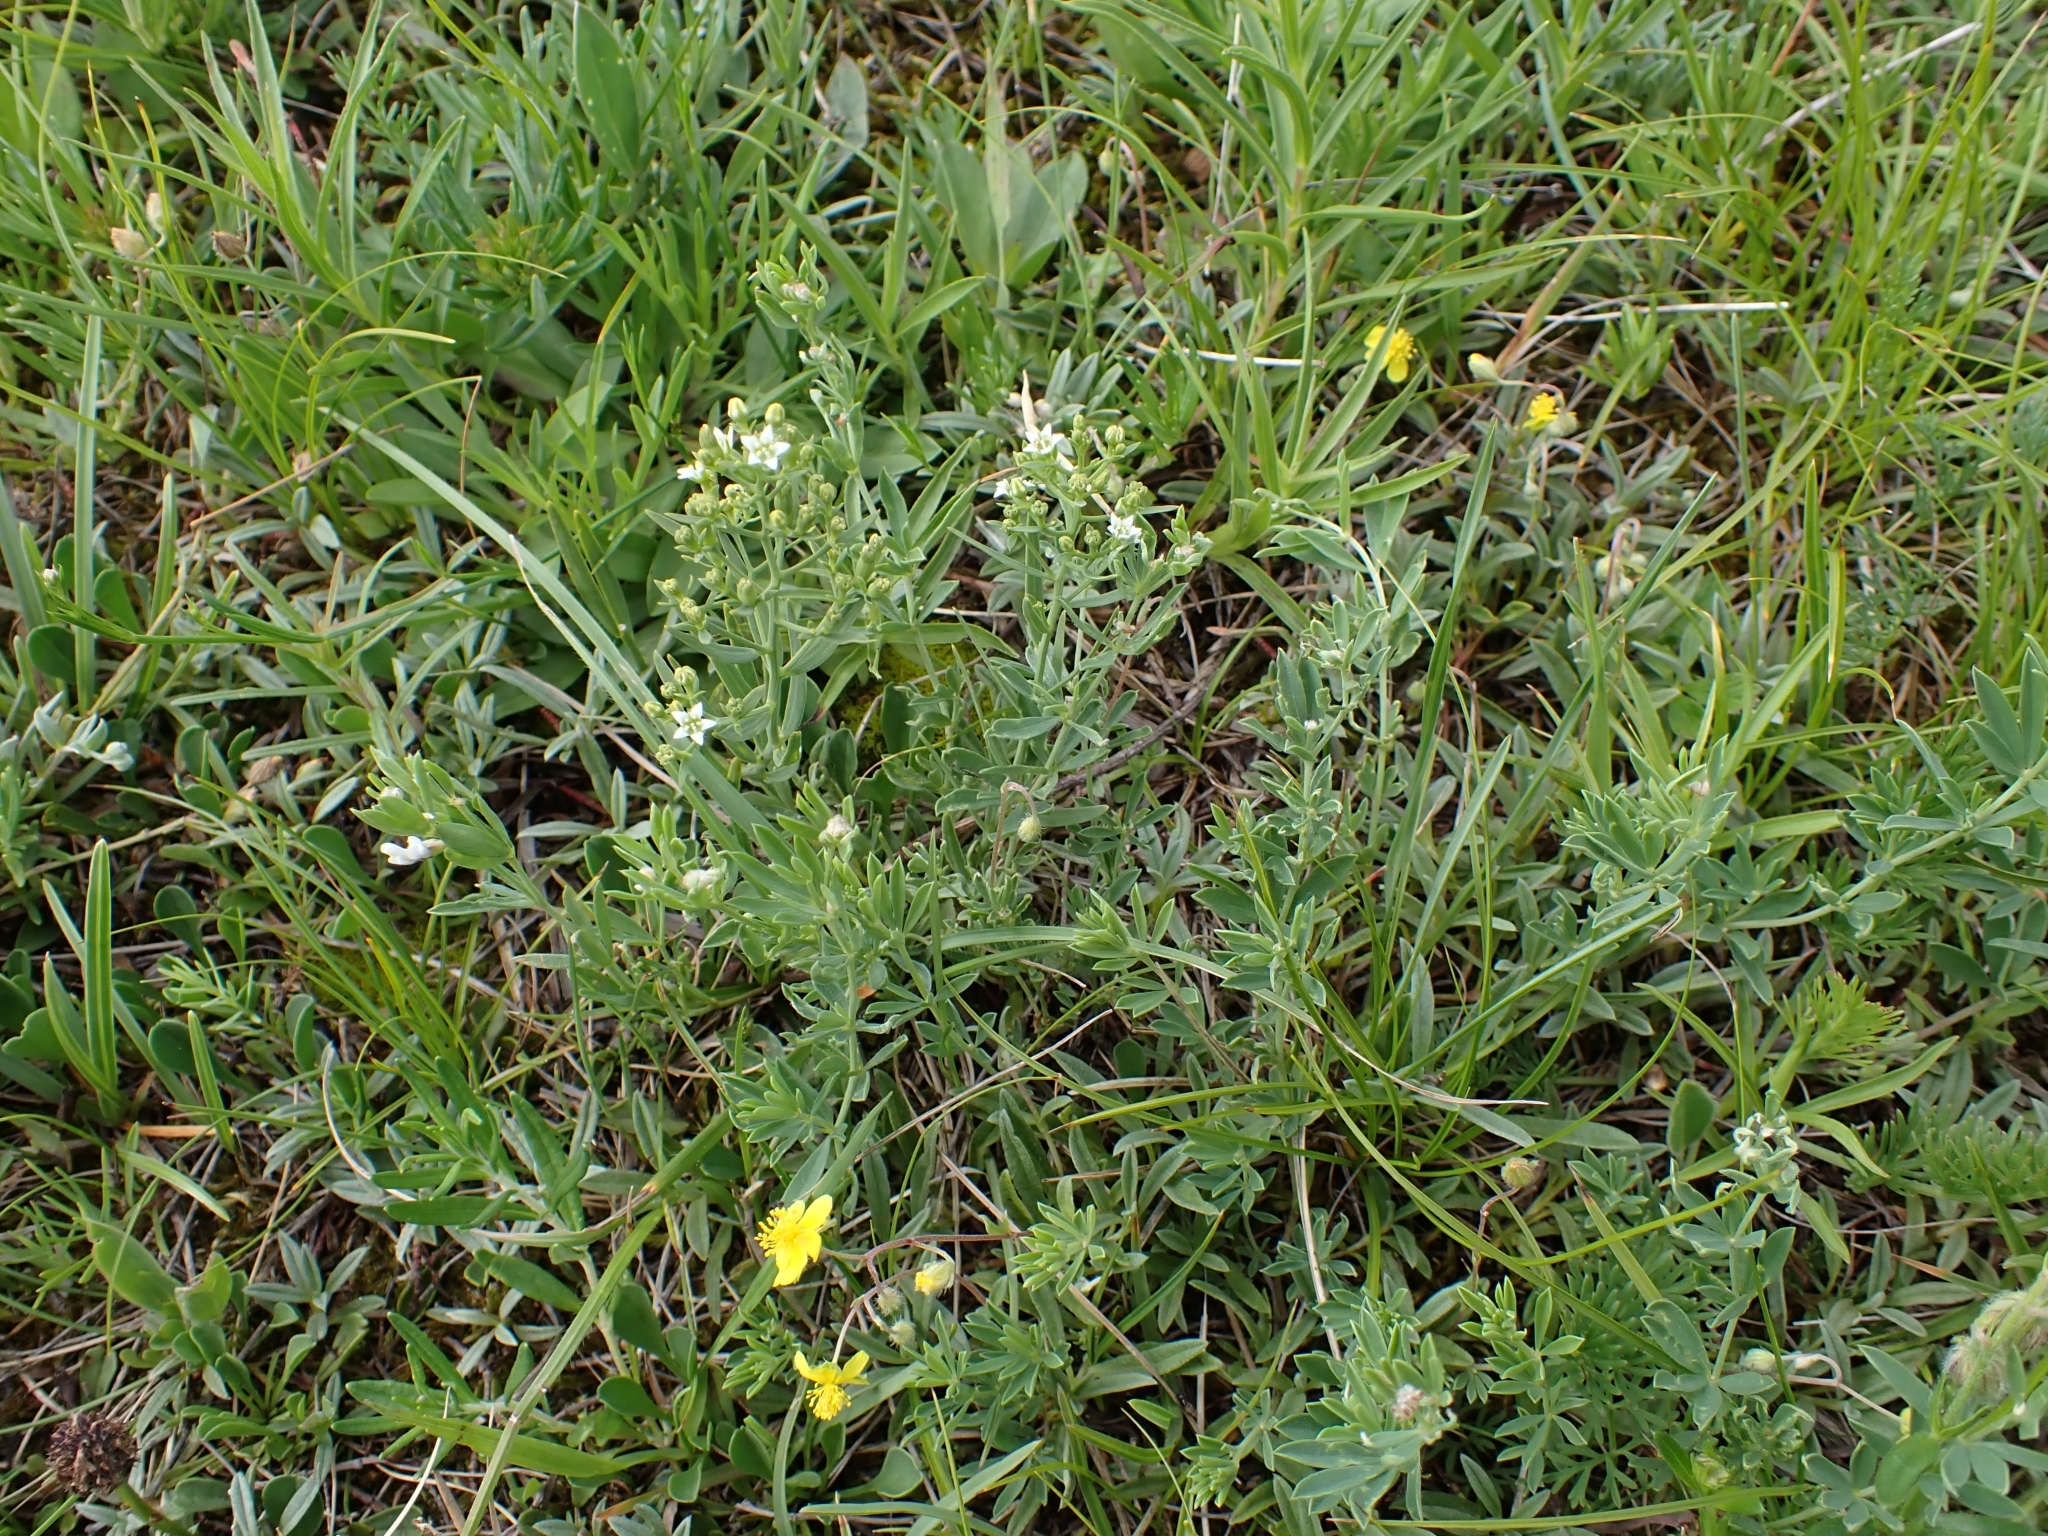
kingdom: Plantae
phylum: Tracheophyta
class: Magnoliopsida
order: Santalales
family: Thesiaceae
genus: Thesium
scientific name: Thesium linophyllon
